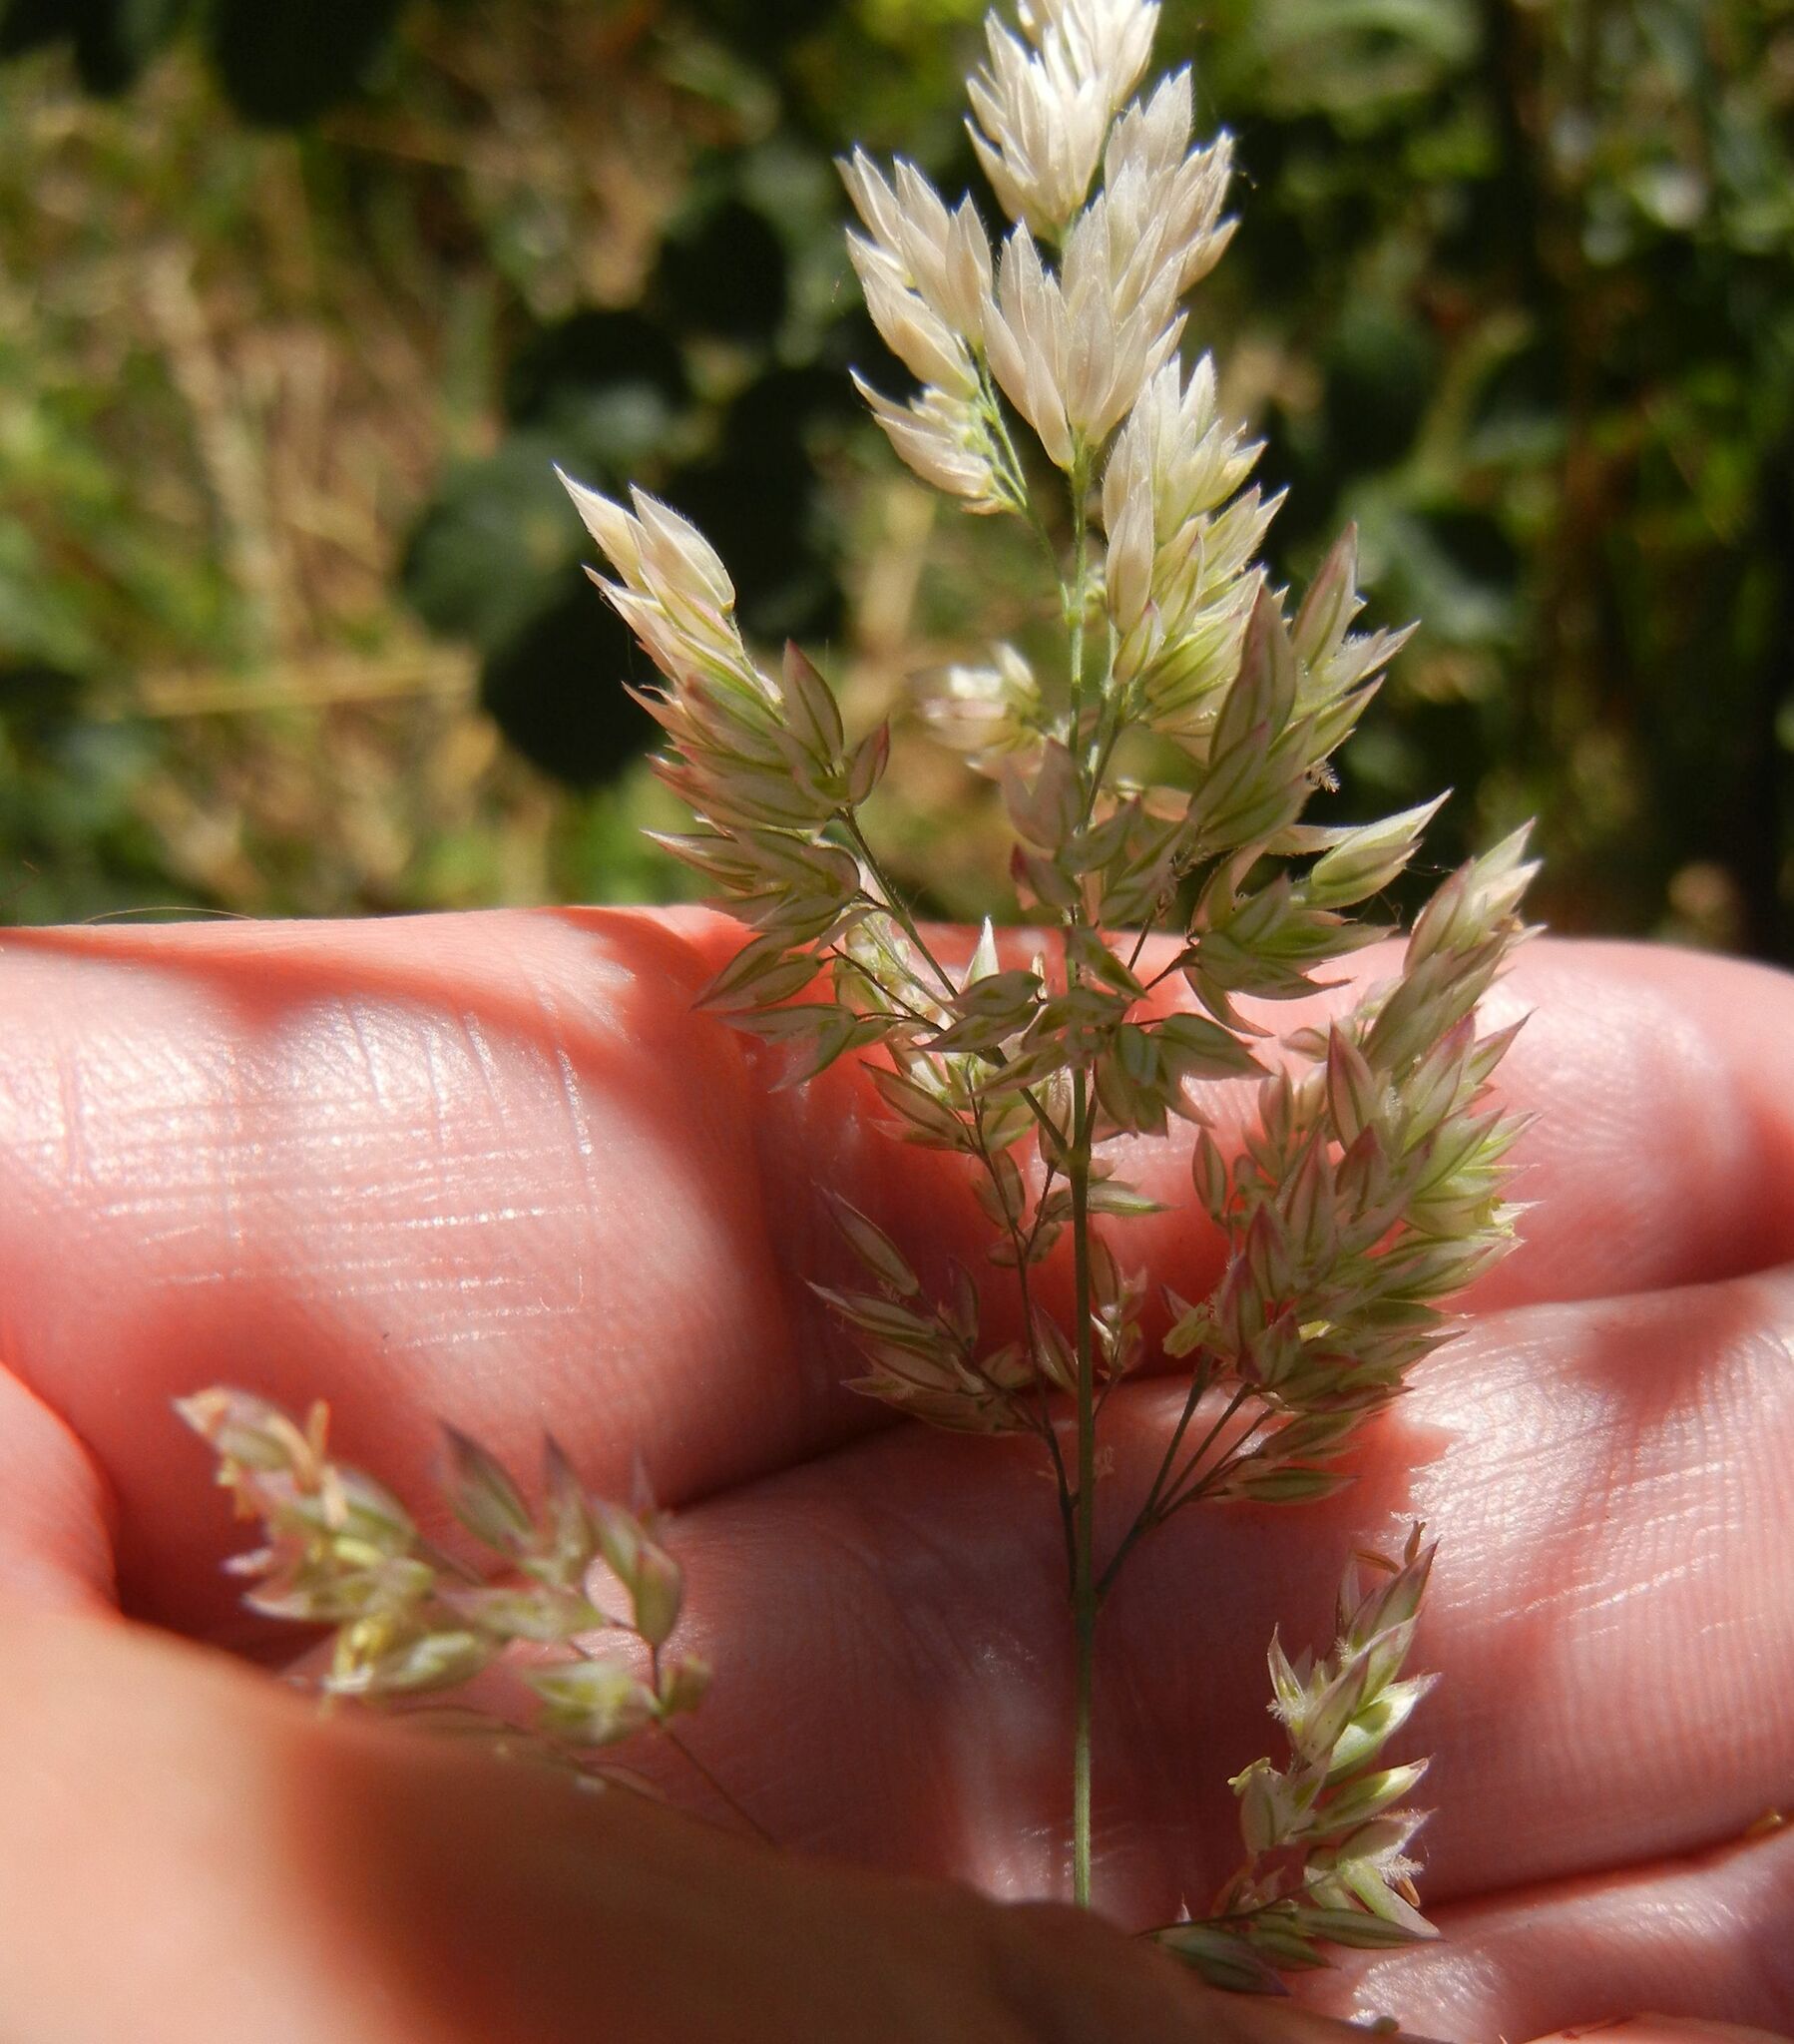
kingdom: Plantae
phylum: Tracheophyta
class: Liliopsida
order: Poales
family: Poaceae
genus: Holcus
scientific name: Holcus lanatus
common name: Yorkshire-fog
